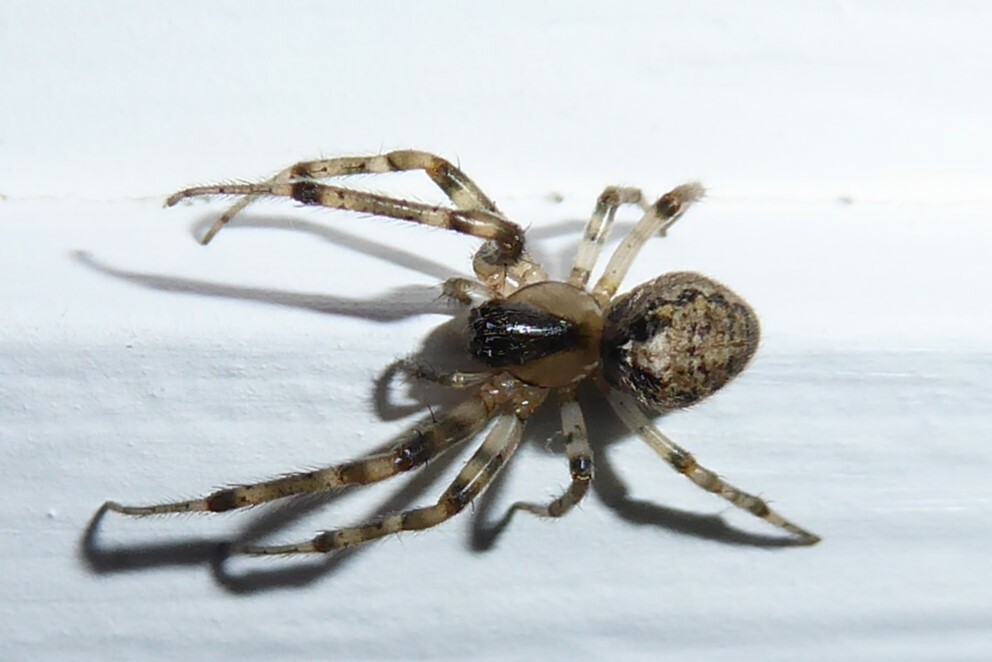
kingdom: Animalia
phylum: Arthropoda
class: Arachnida
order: Araneae
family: Araneidae
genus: Zygiella
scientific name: Zygiella x-notata
